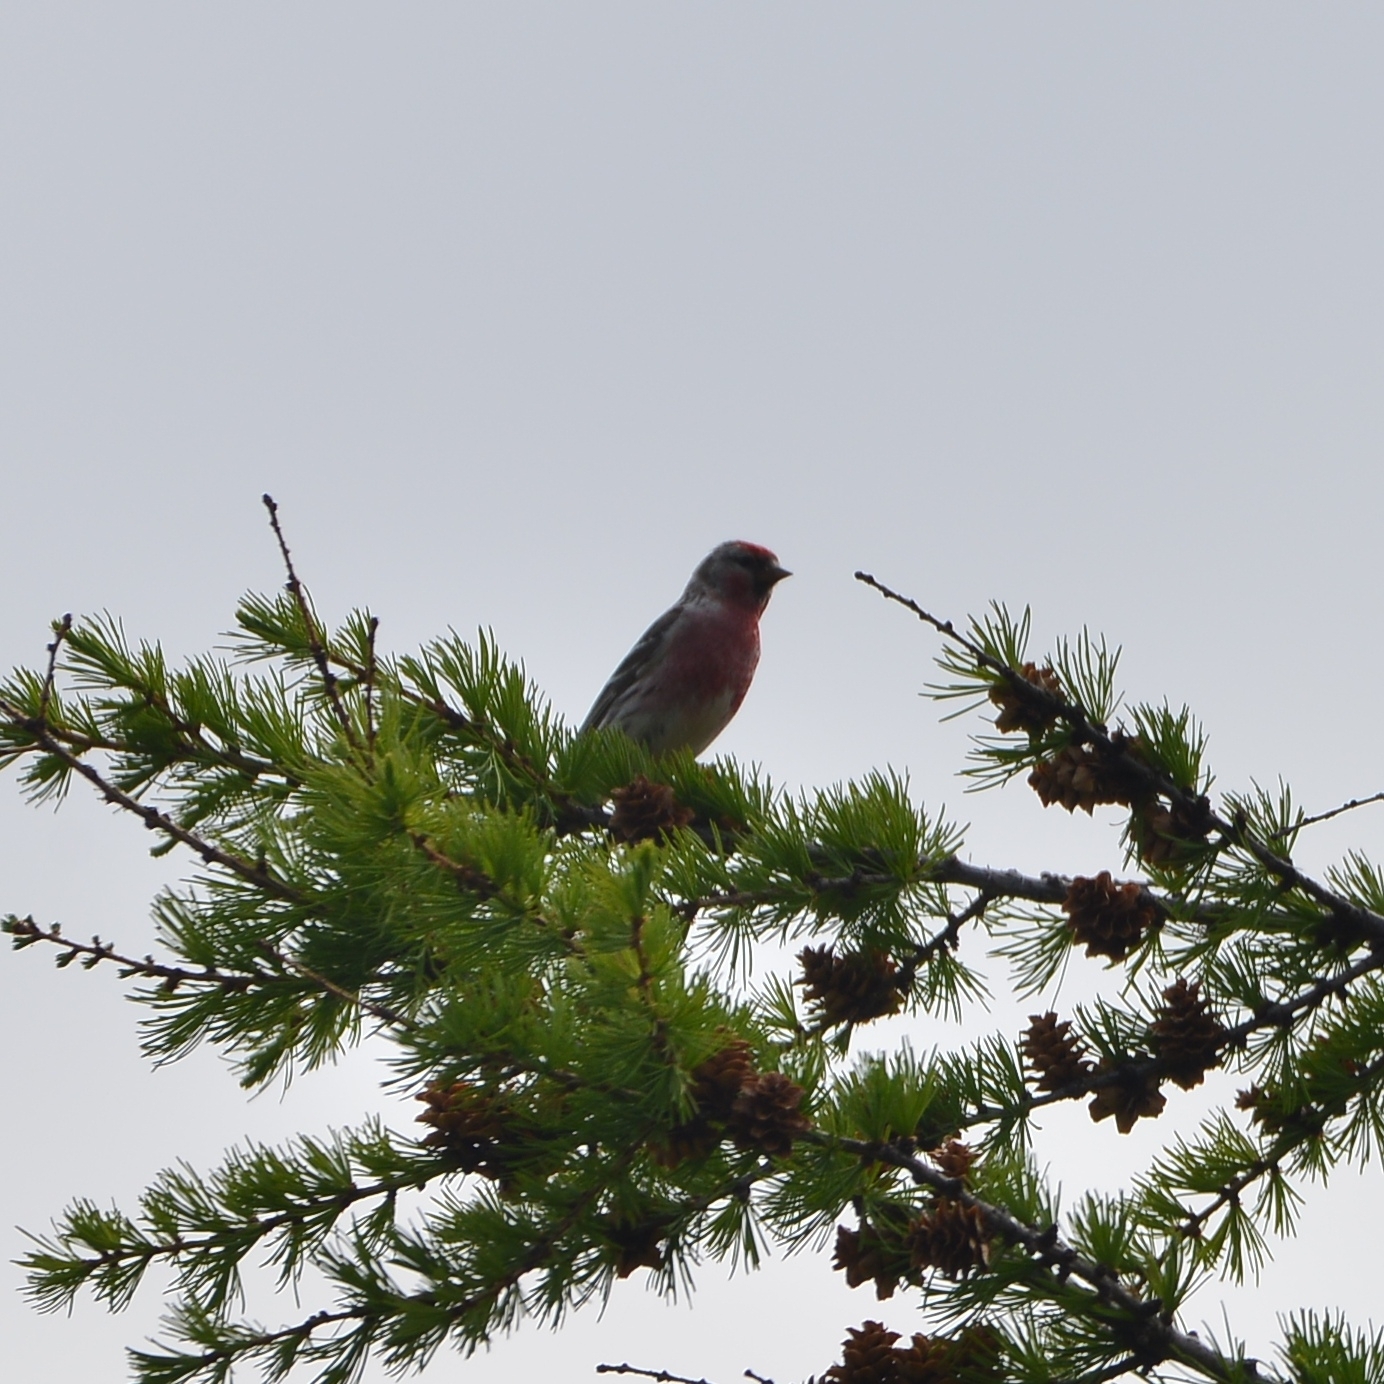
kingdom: Animalia
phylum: Chordata
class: Aves
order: Passeriformes
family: Fringillidae
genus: Acanthis
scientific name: Acanthis flammea
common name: Common redpoll
